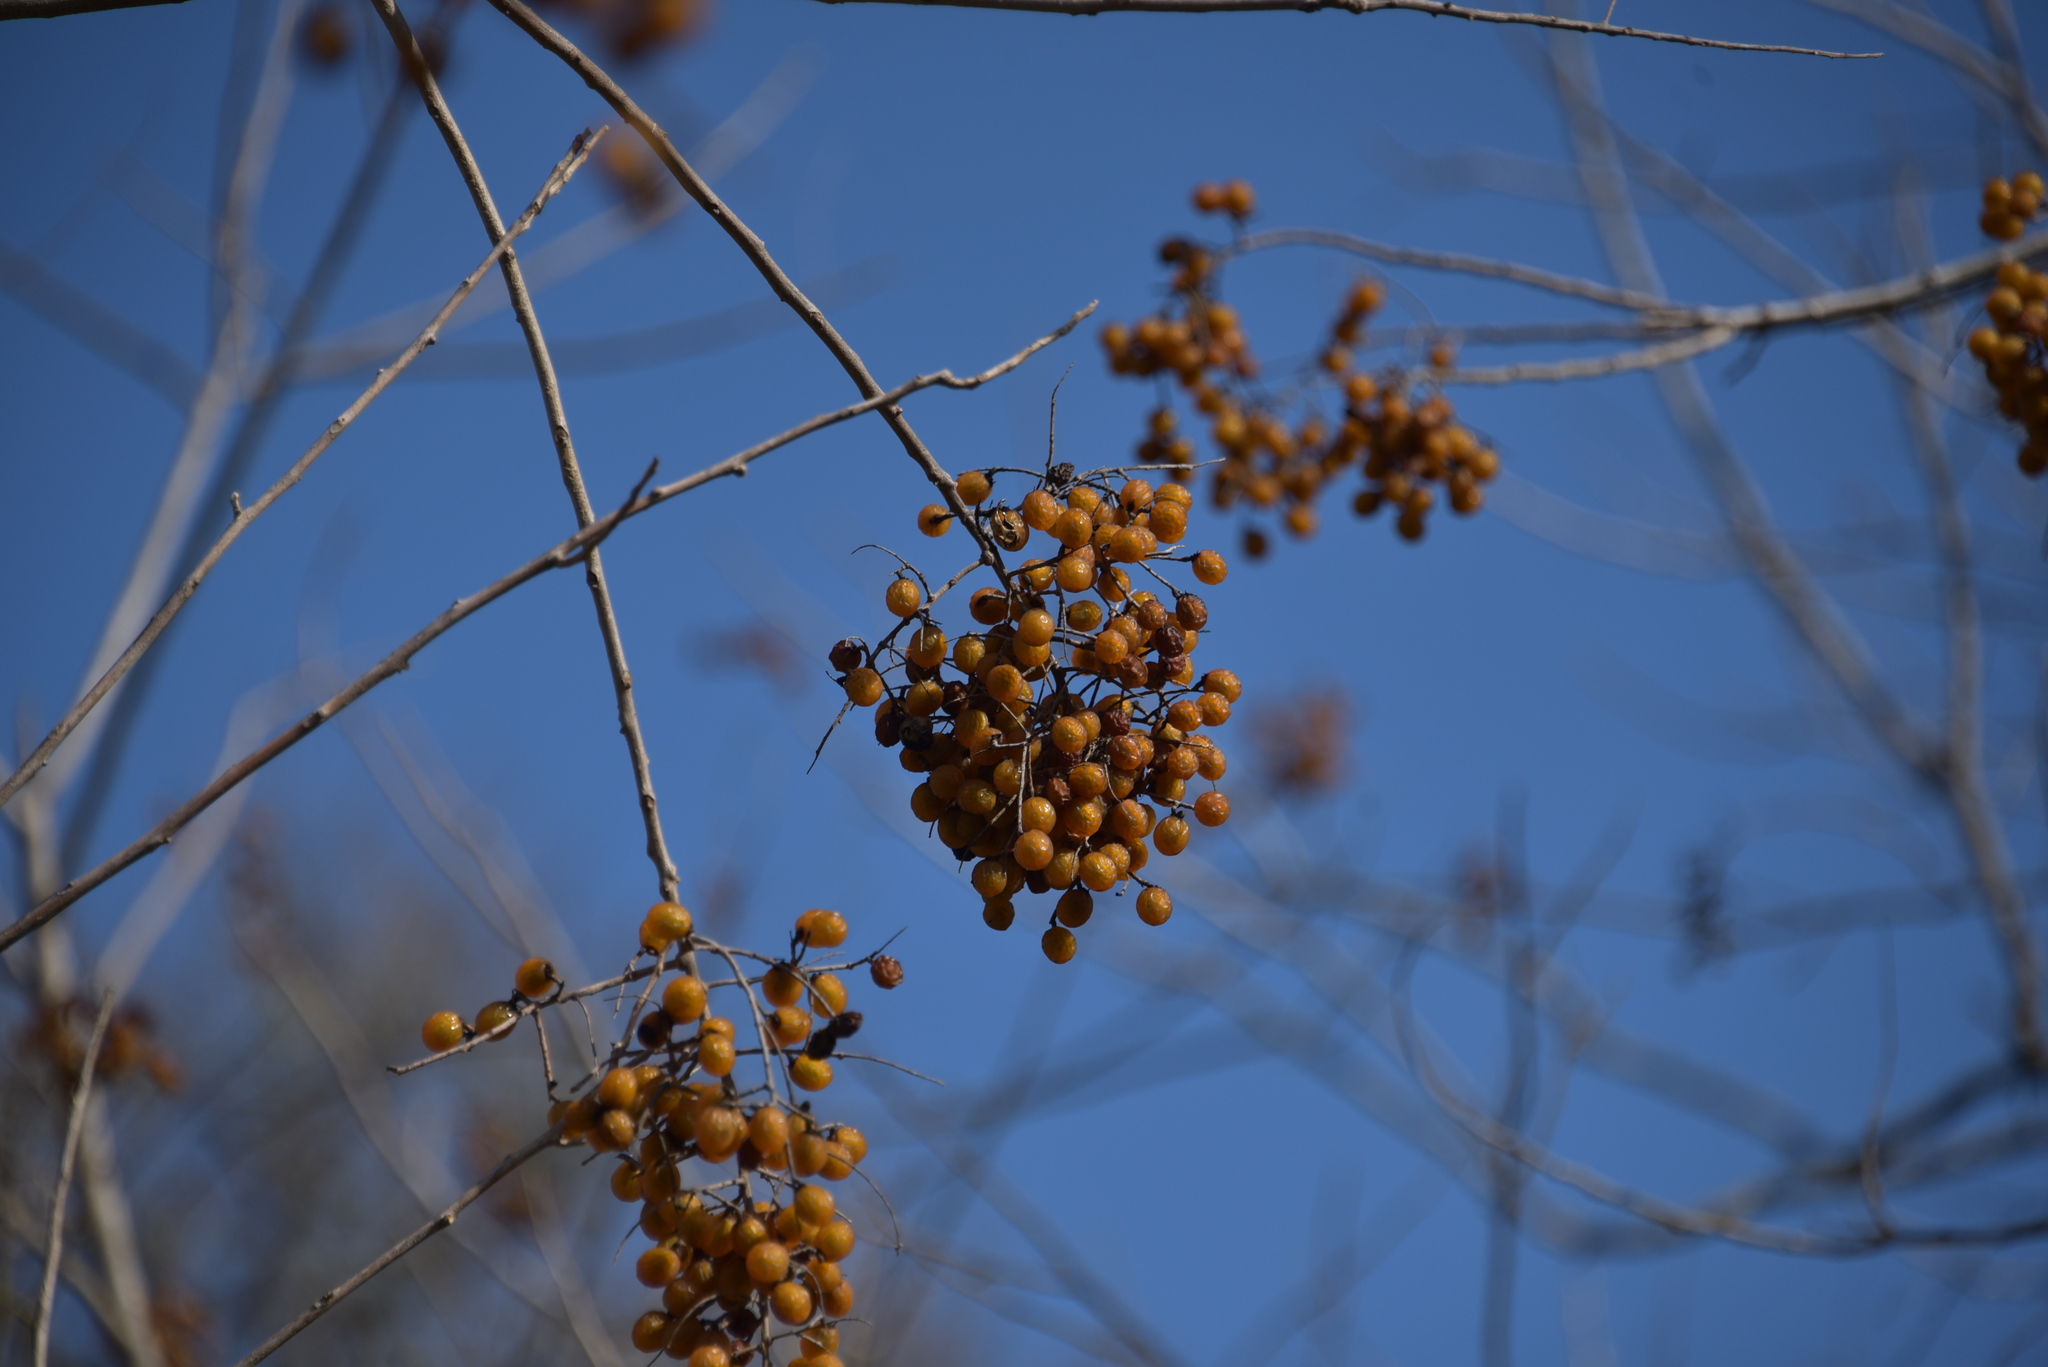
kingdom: Plantae
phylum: Tracheophyta
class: Magnoliopsida
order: Sapindales
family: Sapindaceae
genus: Sapindus
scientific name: Sapindus drummondii
